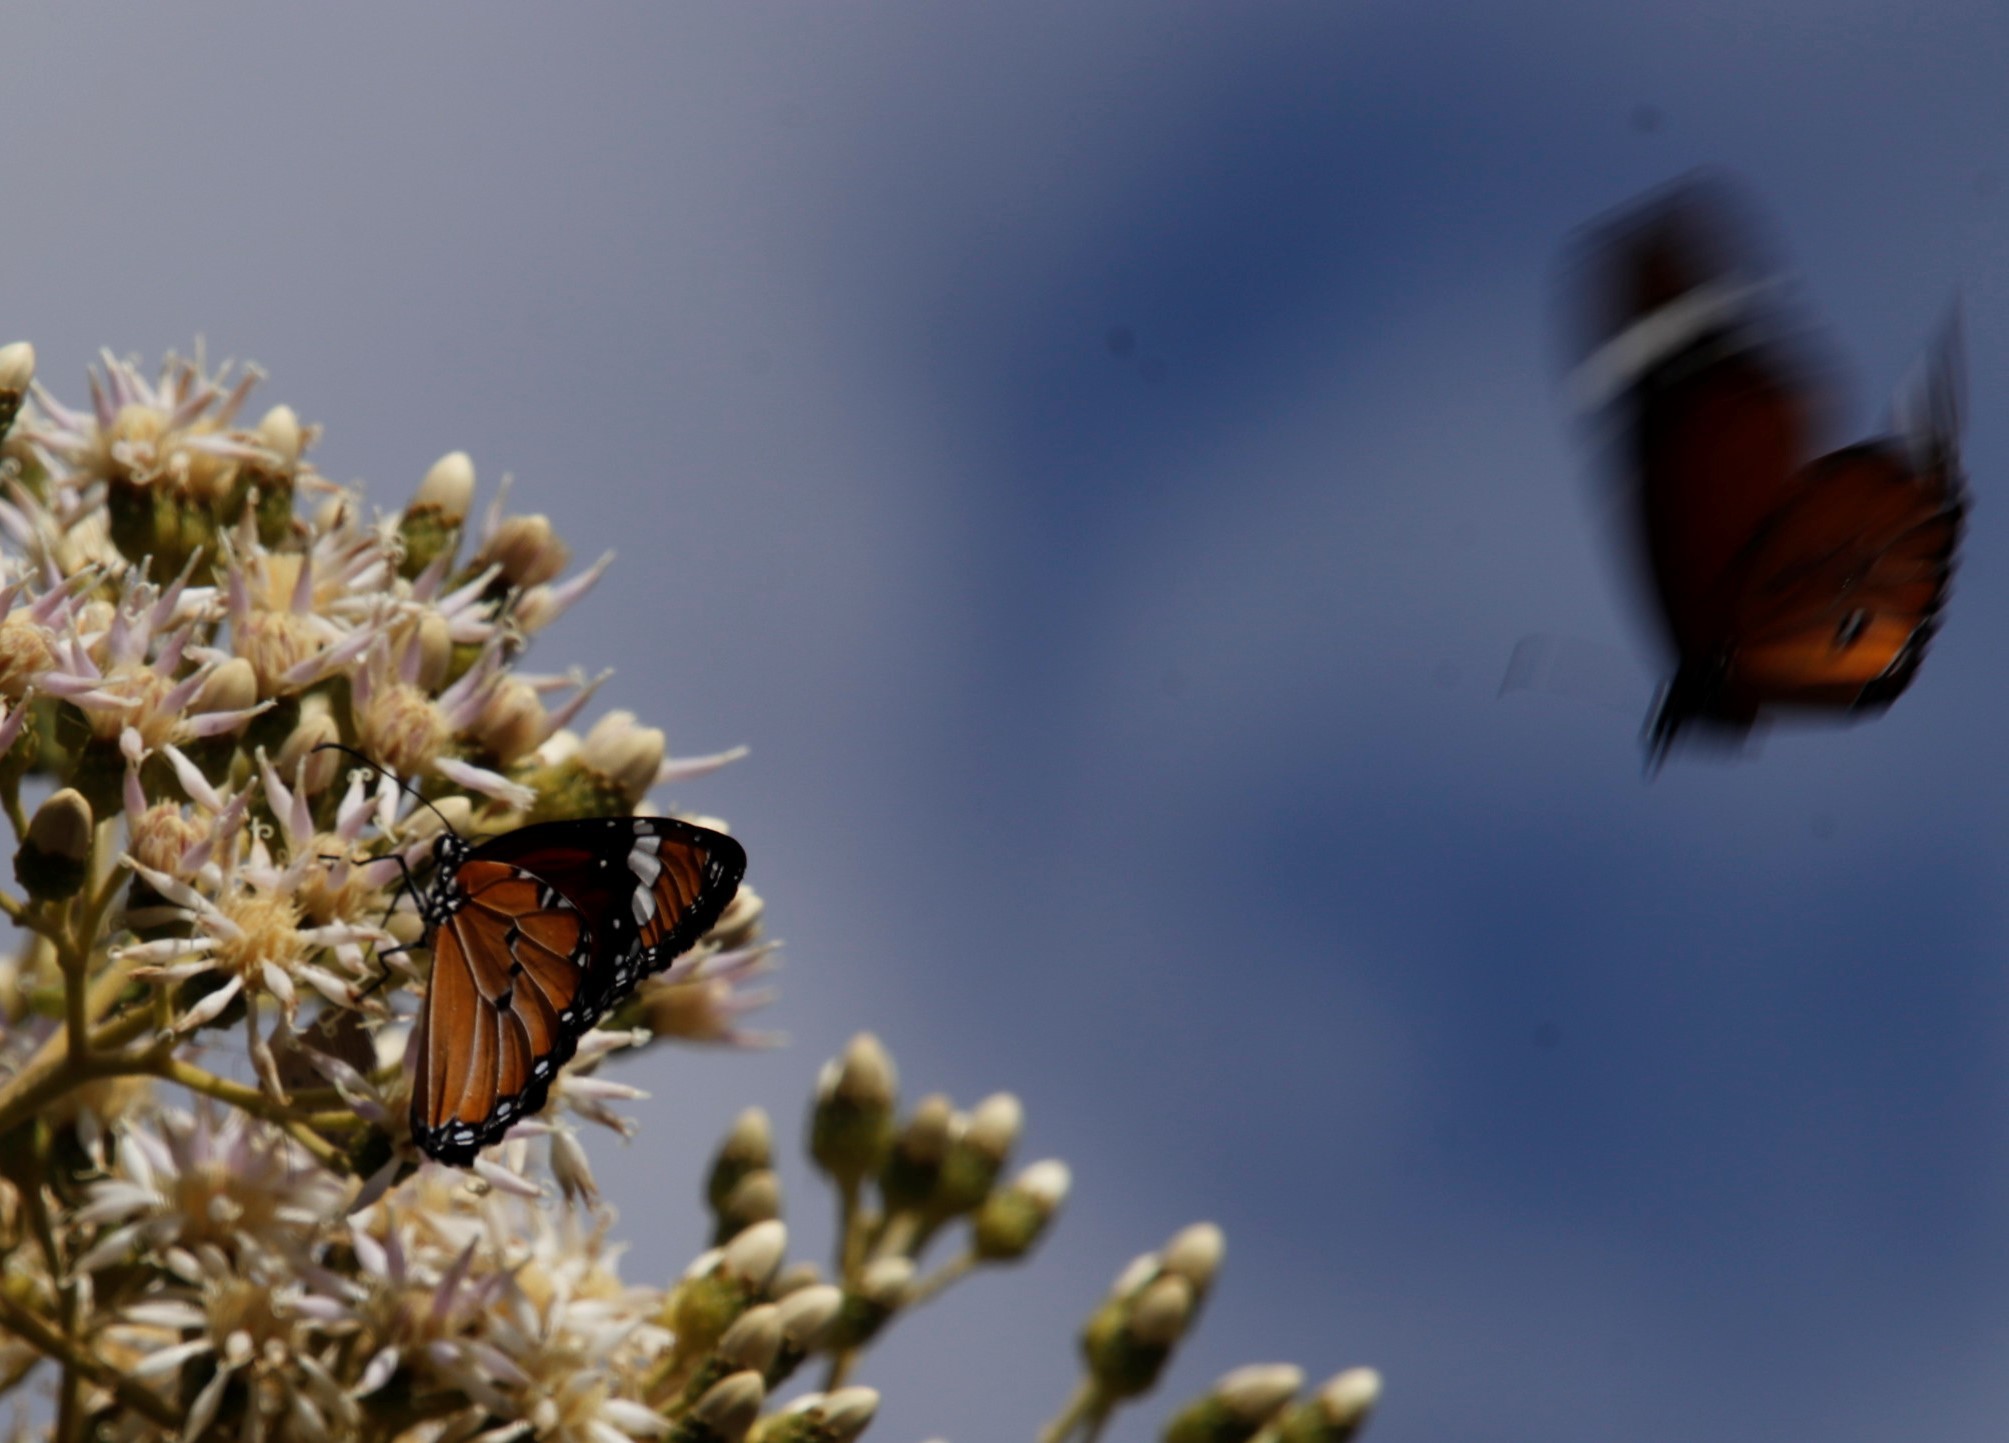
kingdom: Animalia
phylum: Arthropoda
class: Insecta
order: Lepidoptera
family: Nymphalidae
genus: Danaus
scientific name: Danaus chrysippus
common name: Plain tiger
